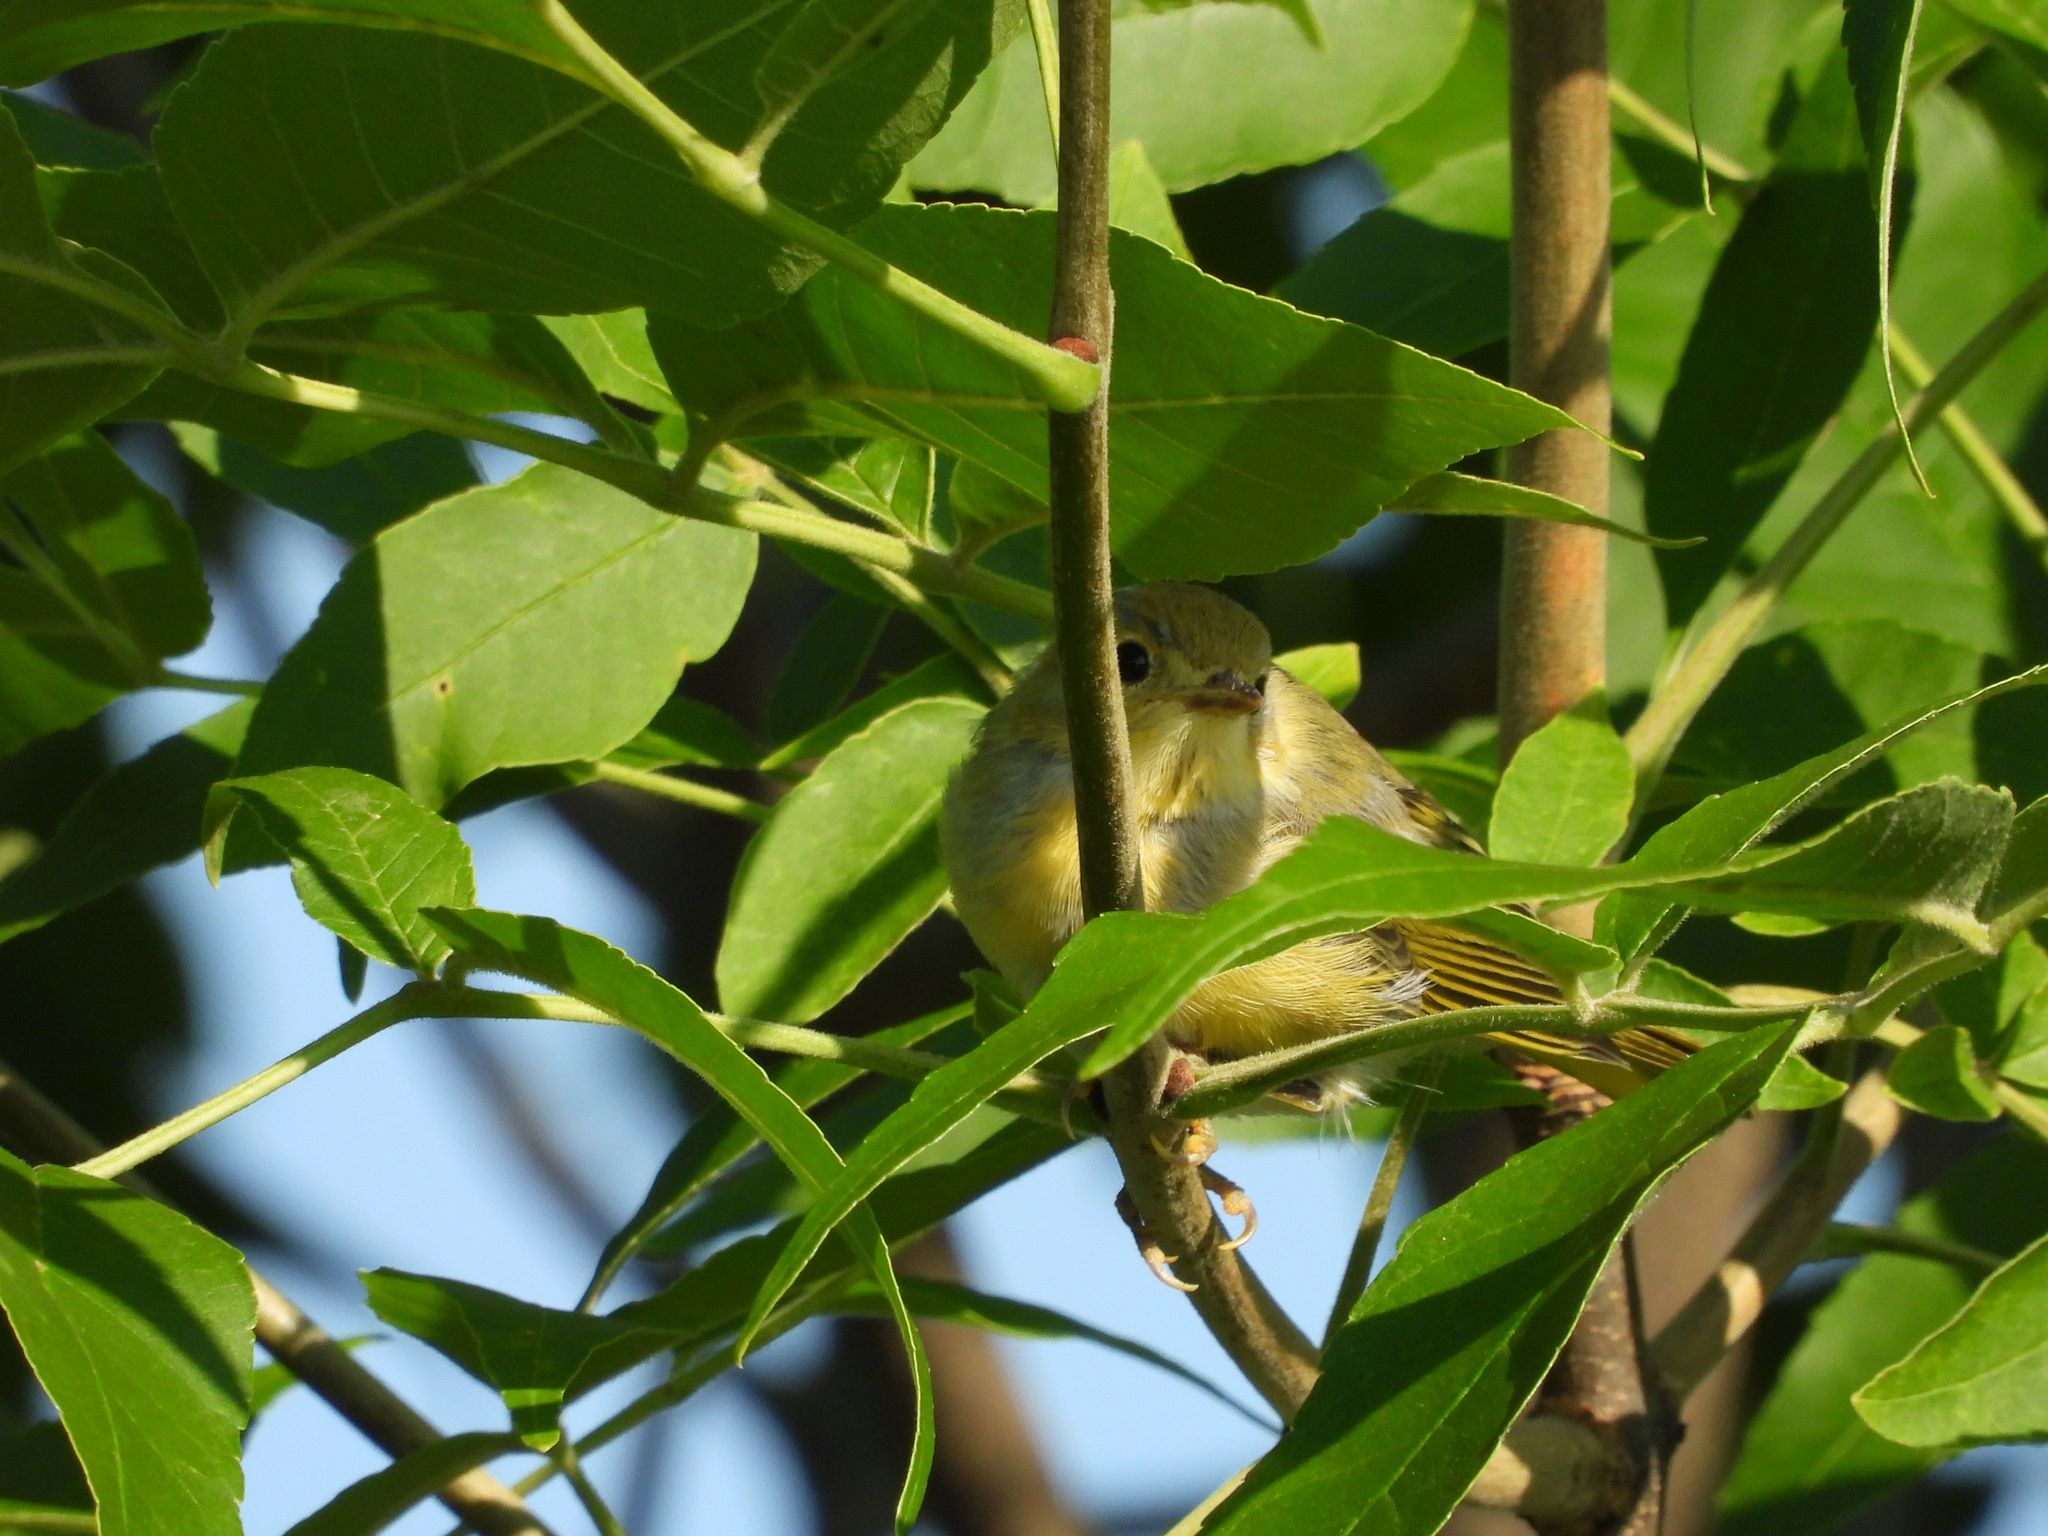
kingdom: Animalia
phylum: Chordata
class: Aves
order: Passeriformes
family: Parulidae
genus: Setophaga
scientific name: Setophaga petechia
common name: Yellow warbler
